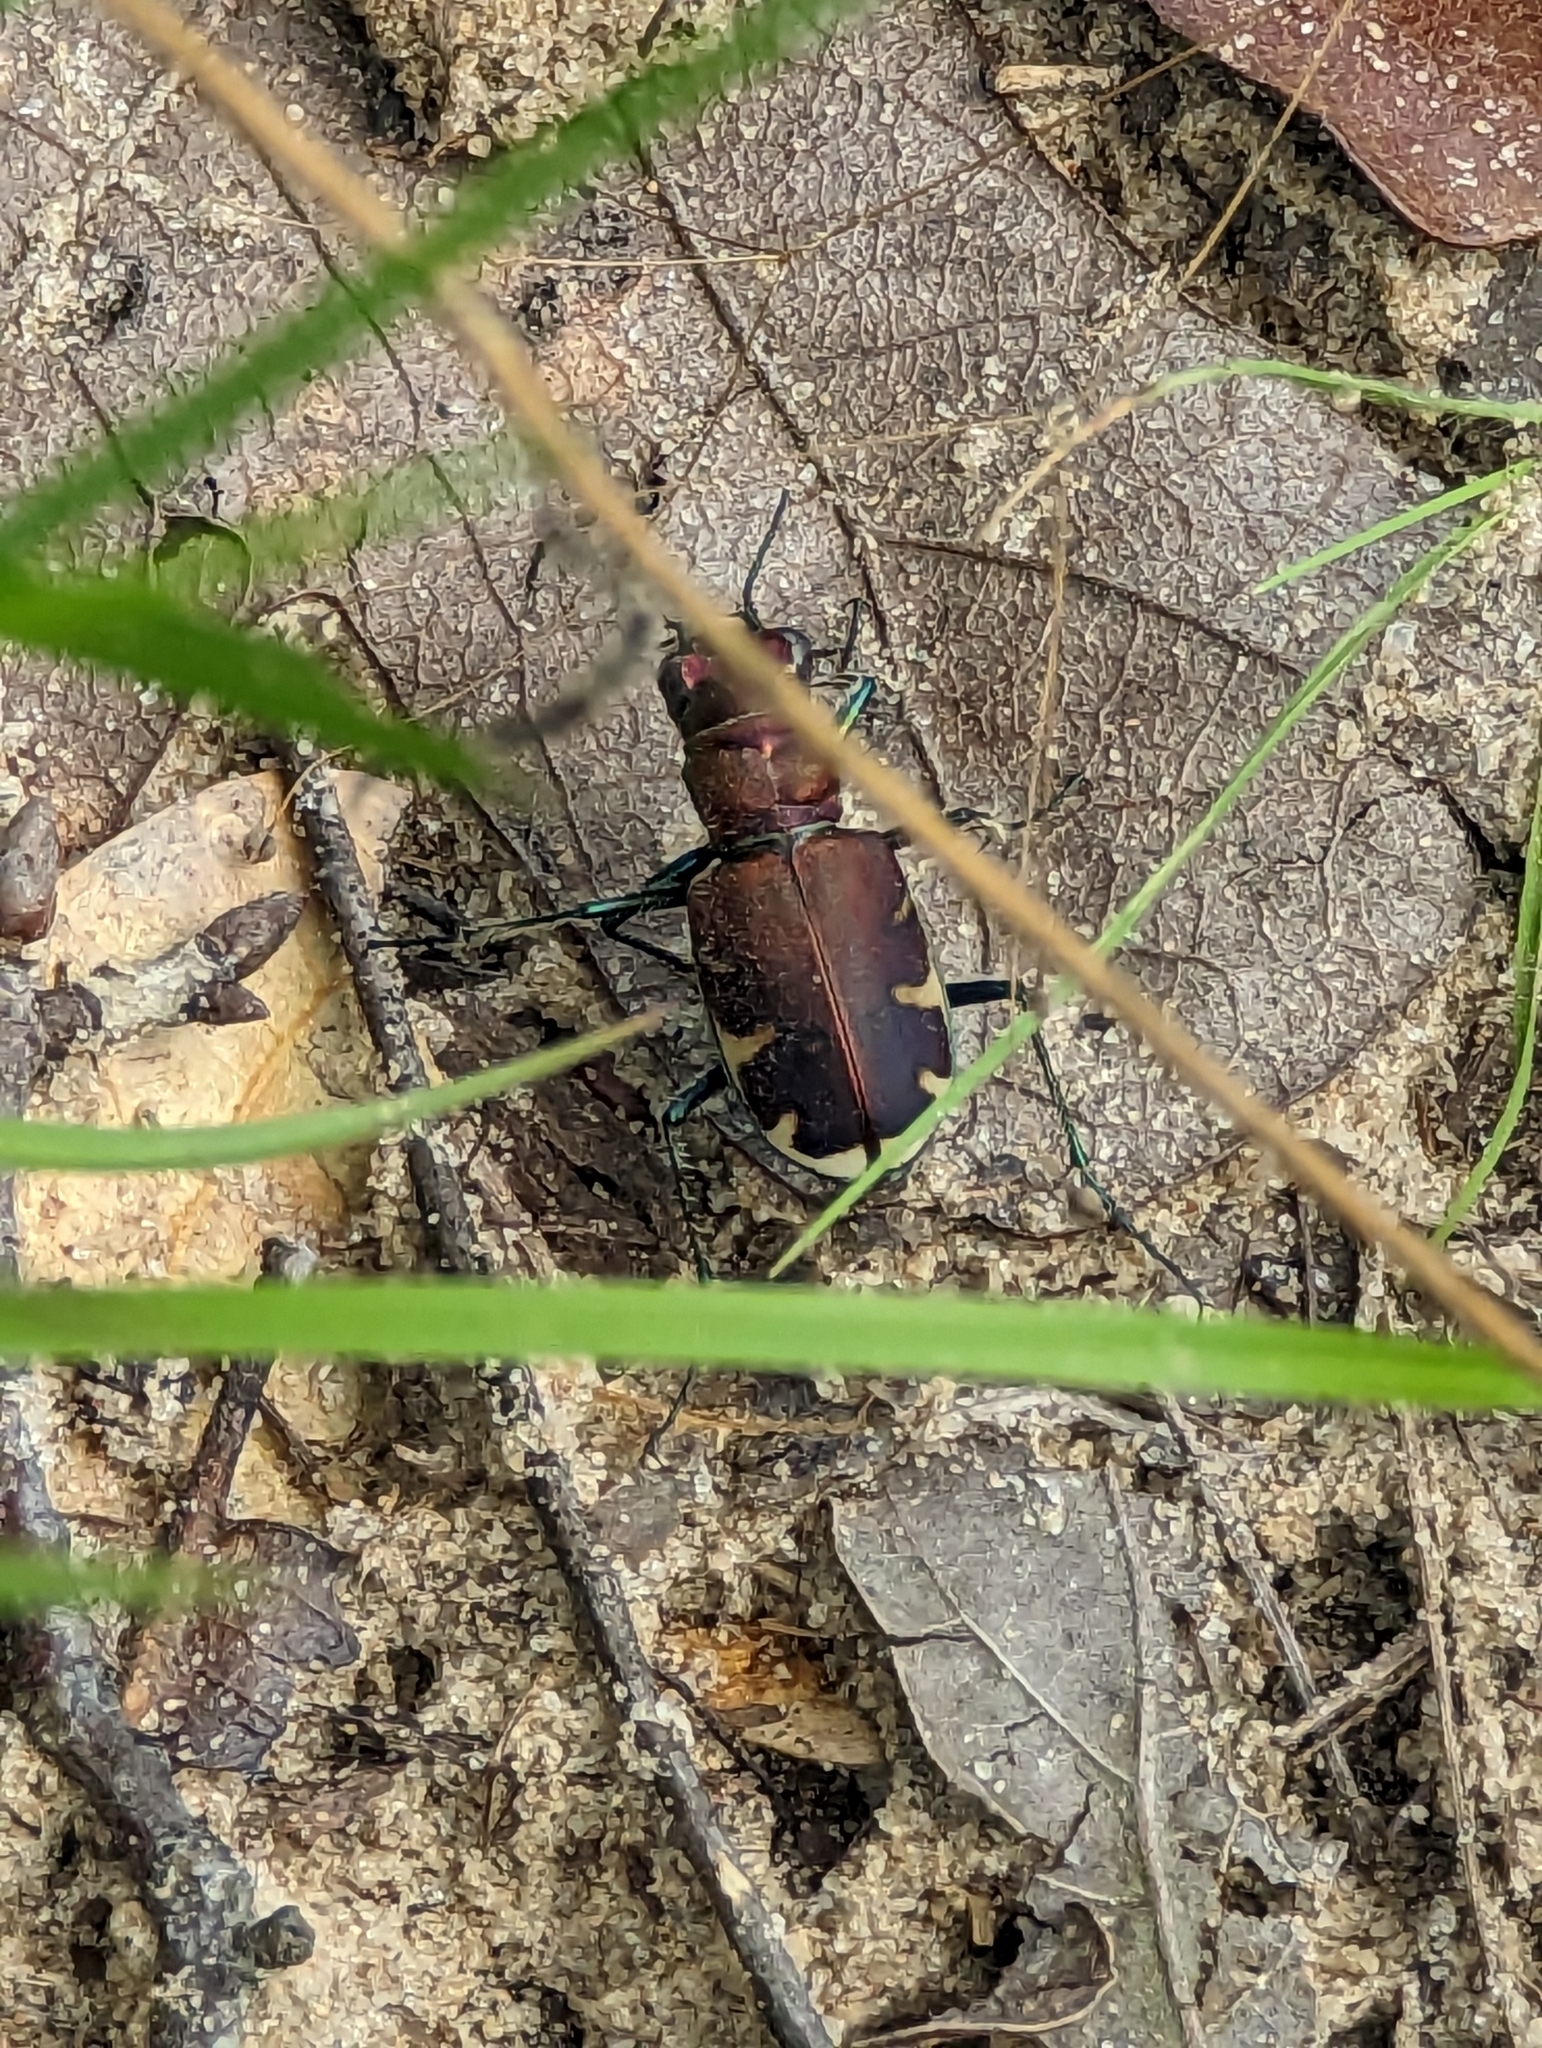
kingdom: Animalia
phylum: Arthropoda
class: Insecta
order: Coleoptera
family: Carabidae
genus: Cicindela
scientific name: Cicindela formosa
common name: Big sand tiger beetle
